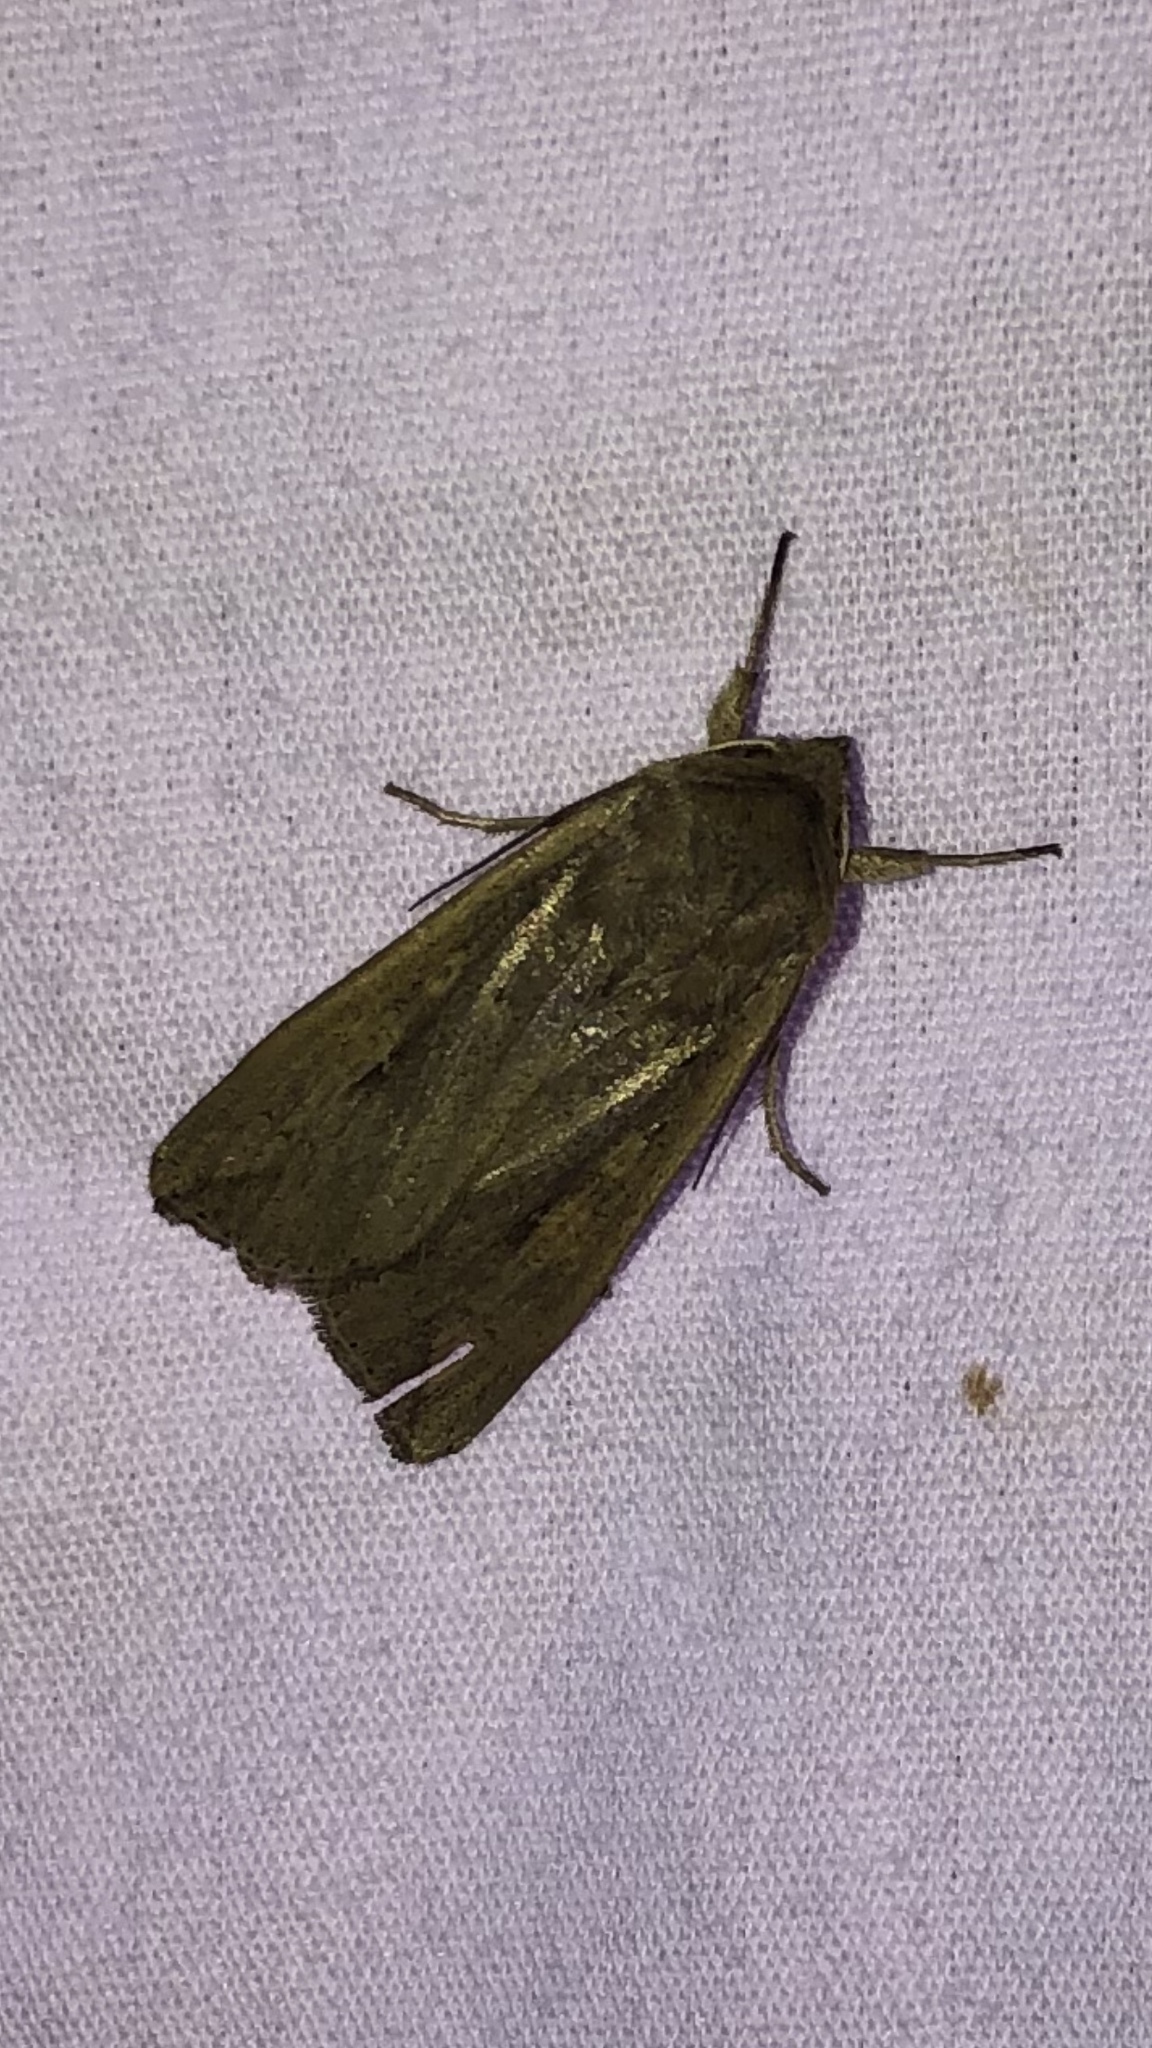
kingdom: Animalia
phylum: Arthropoda
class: Insecta
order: Lepidoptera
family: Noctuidae
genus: Mythimna
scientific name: Mythimna unipuncta
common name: White-speck
